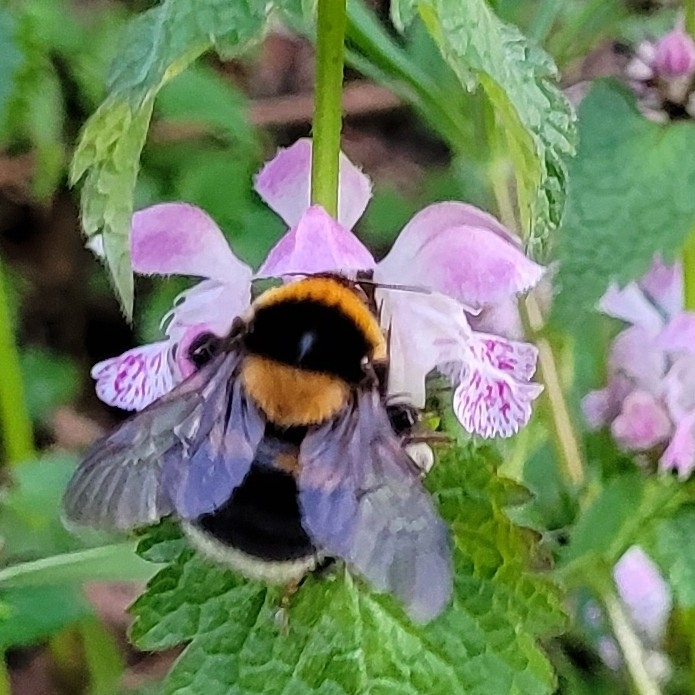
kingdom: Animalia
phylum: Arthropoda
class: Insecta
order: Hymenoptera
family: Apidae
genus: Bombus
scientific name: Bombus ruderatus
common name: Large garden bumblebee
